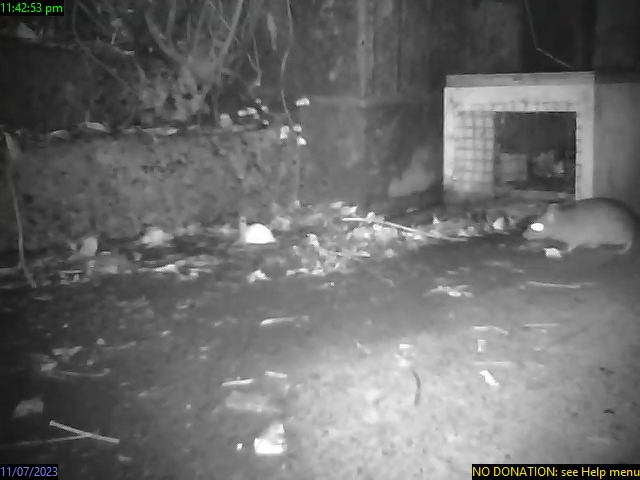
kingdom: Animalia
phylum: Chordata
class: Mammalia
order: Rodentia
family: Muridae
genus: Rattus
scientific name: Rattus rattus
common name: Black rat
